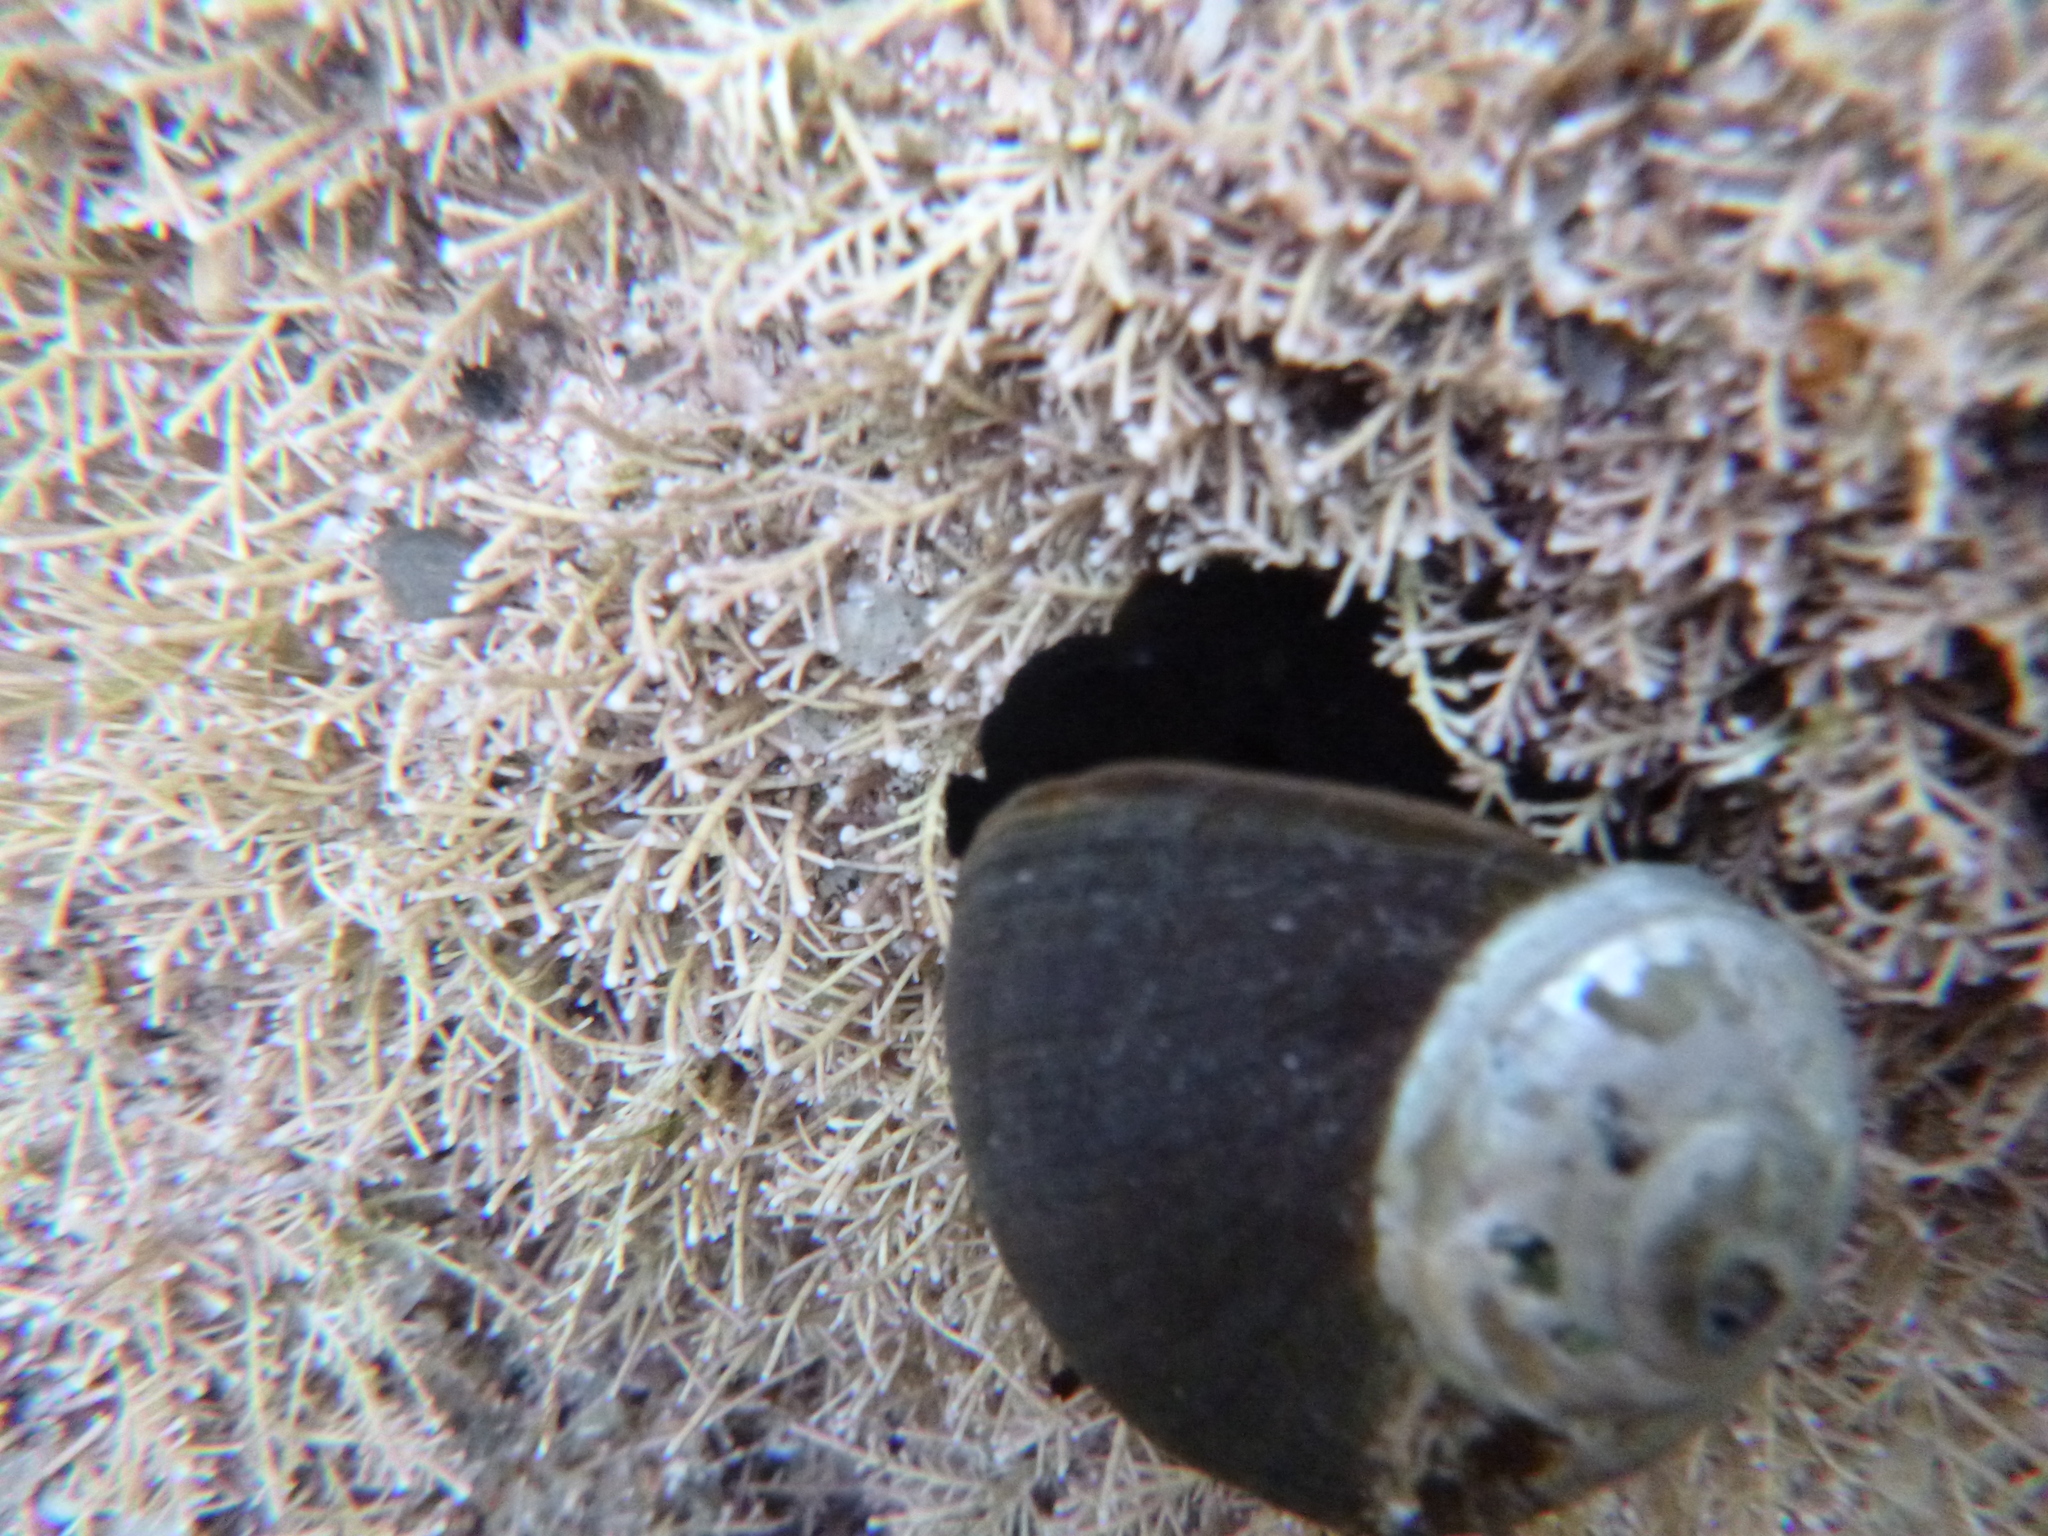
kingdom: Animalia
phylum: Mollusca
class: Gastropoda
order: Trochida
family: Turbinidae
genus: Lunella
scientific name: Lunella smaragda
